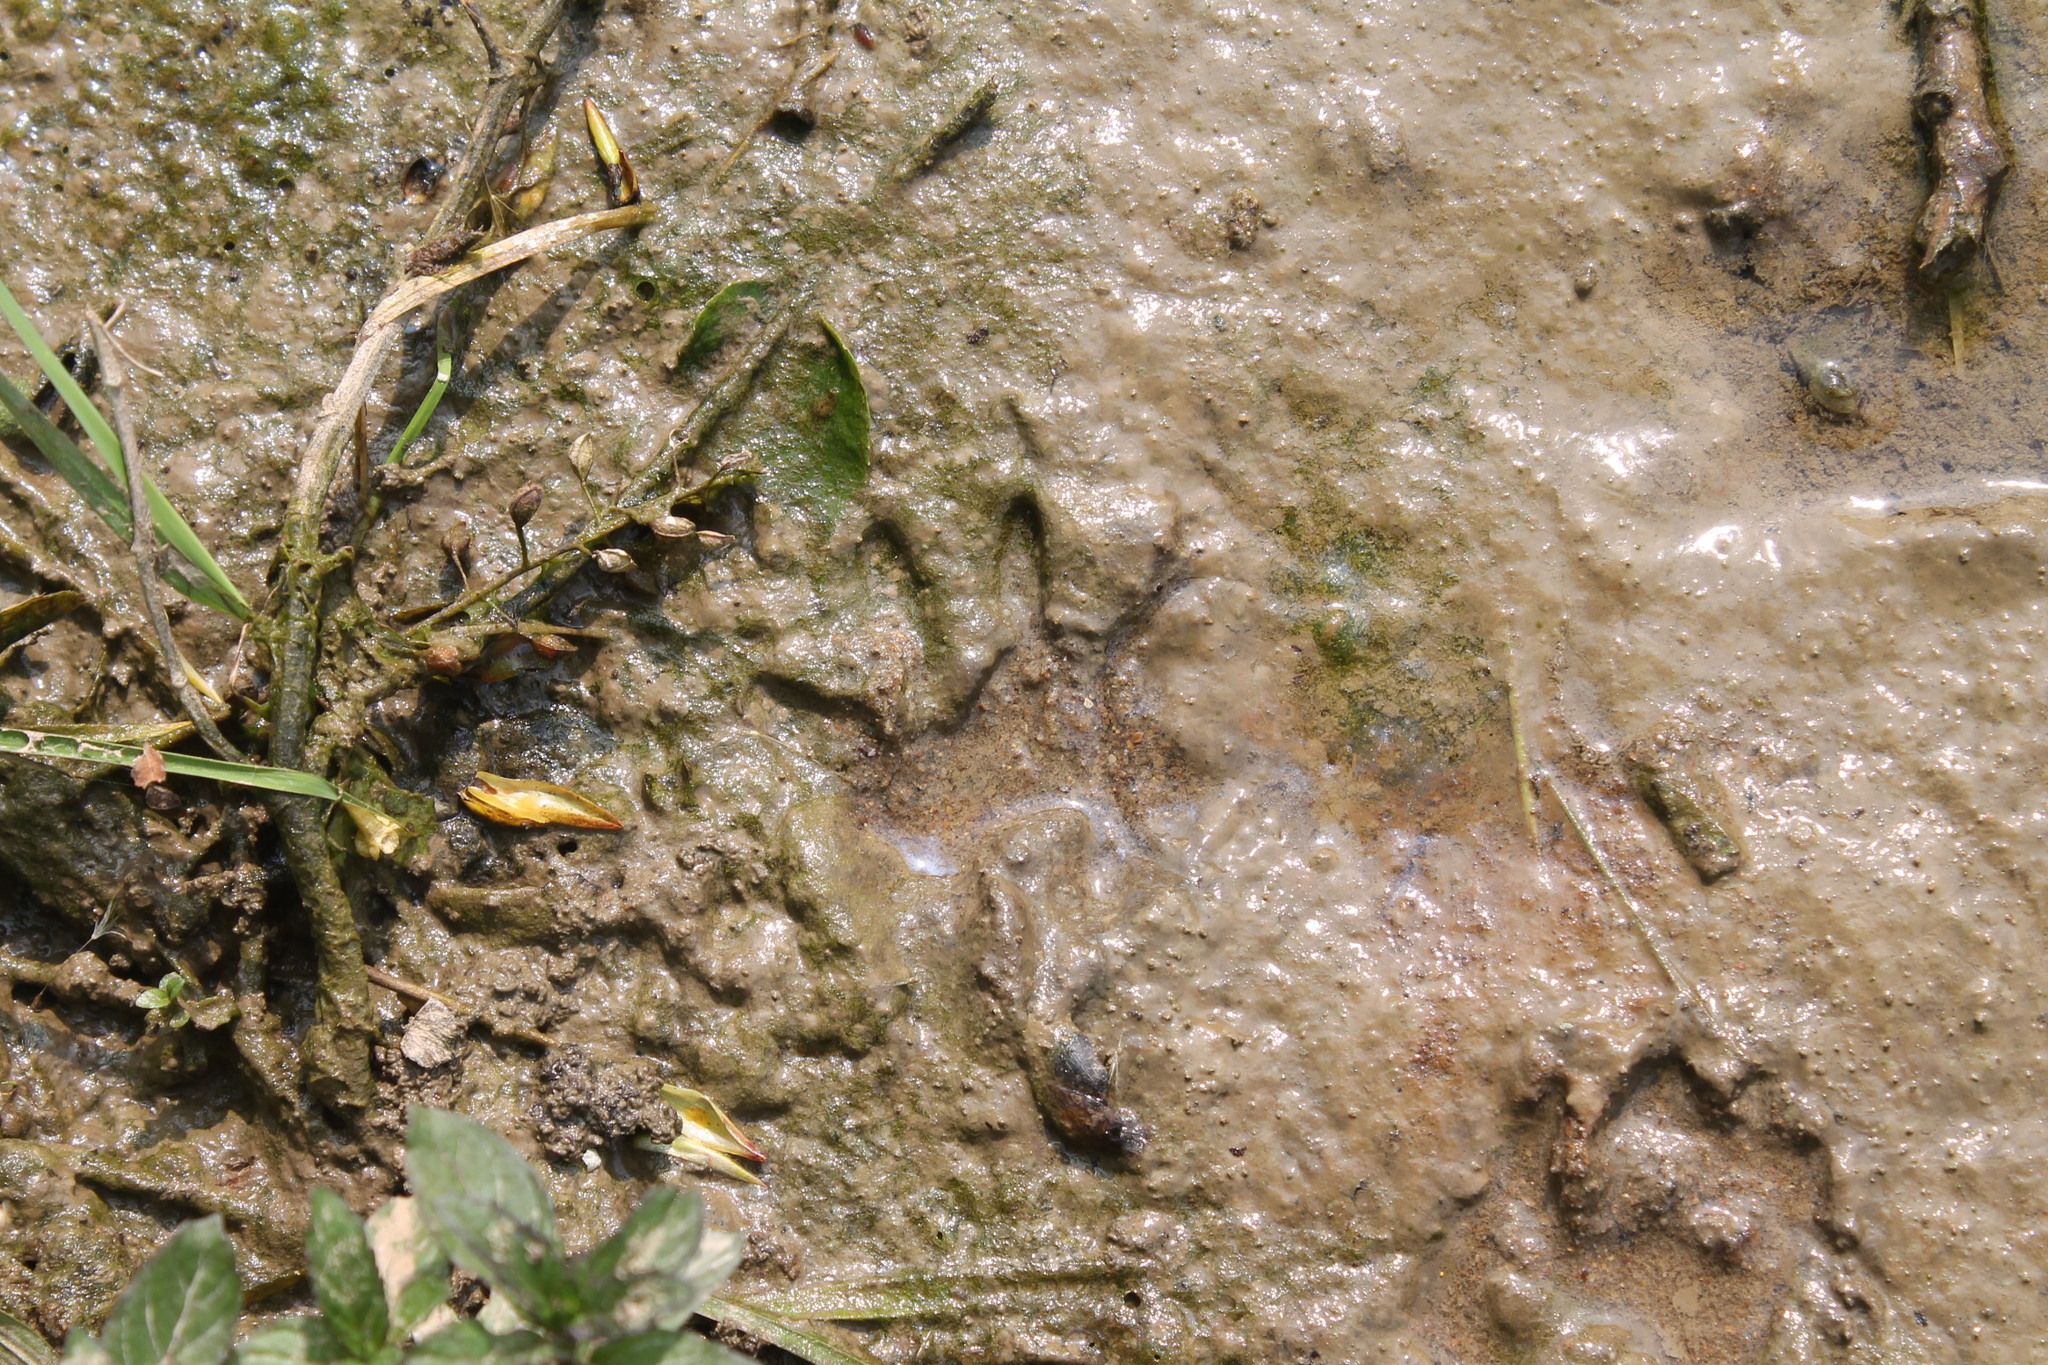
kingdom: Animalia
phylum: Chordata
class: Mammalia
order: Carnivora
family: Procyonidae
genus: Procyon
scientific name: Procyon lotor
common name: Raccoon
